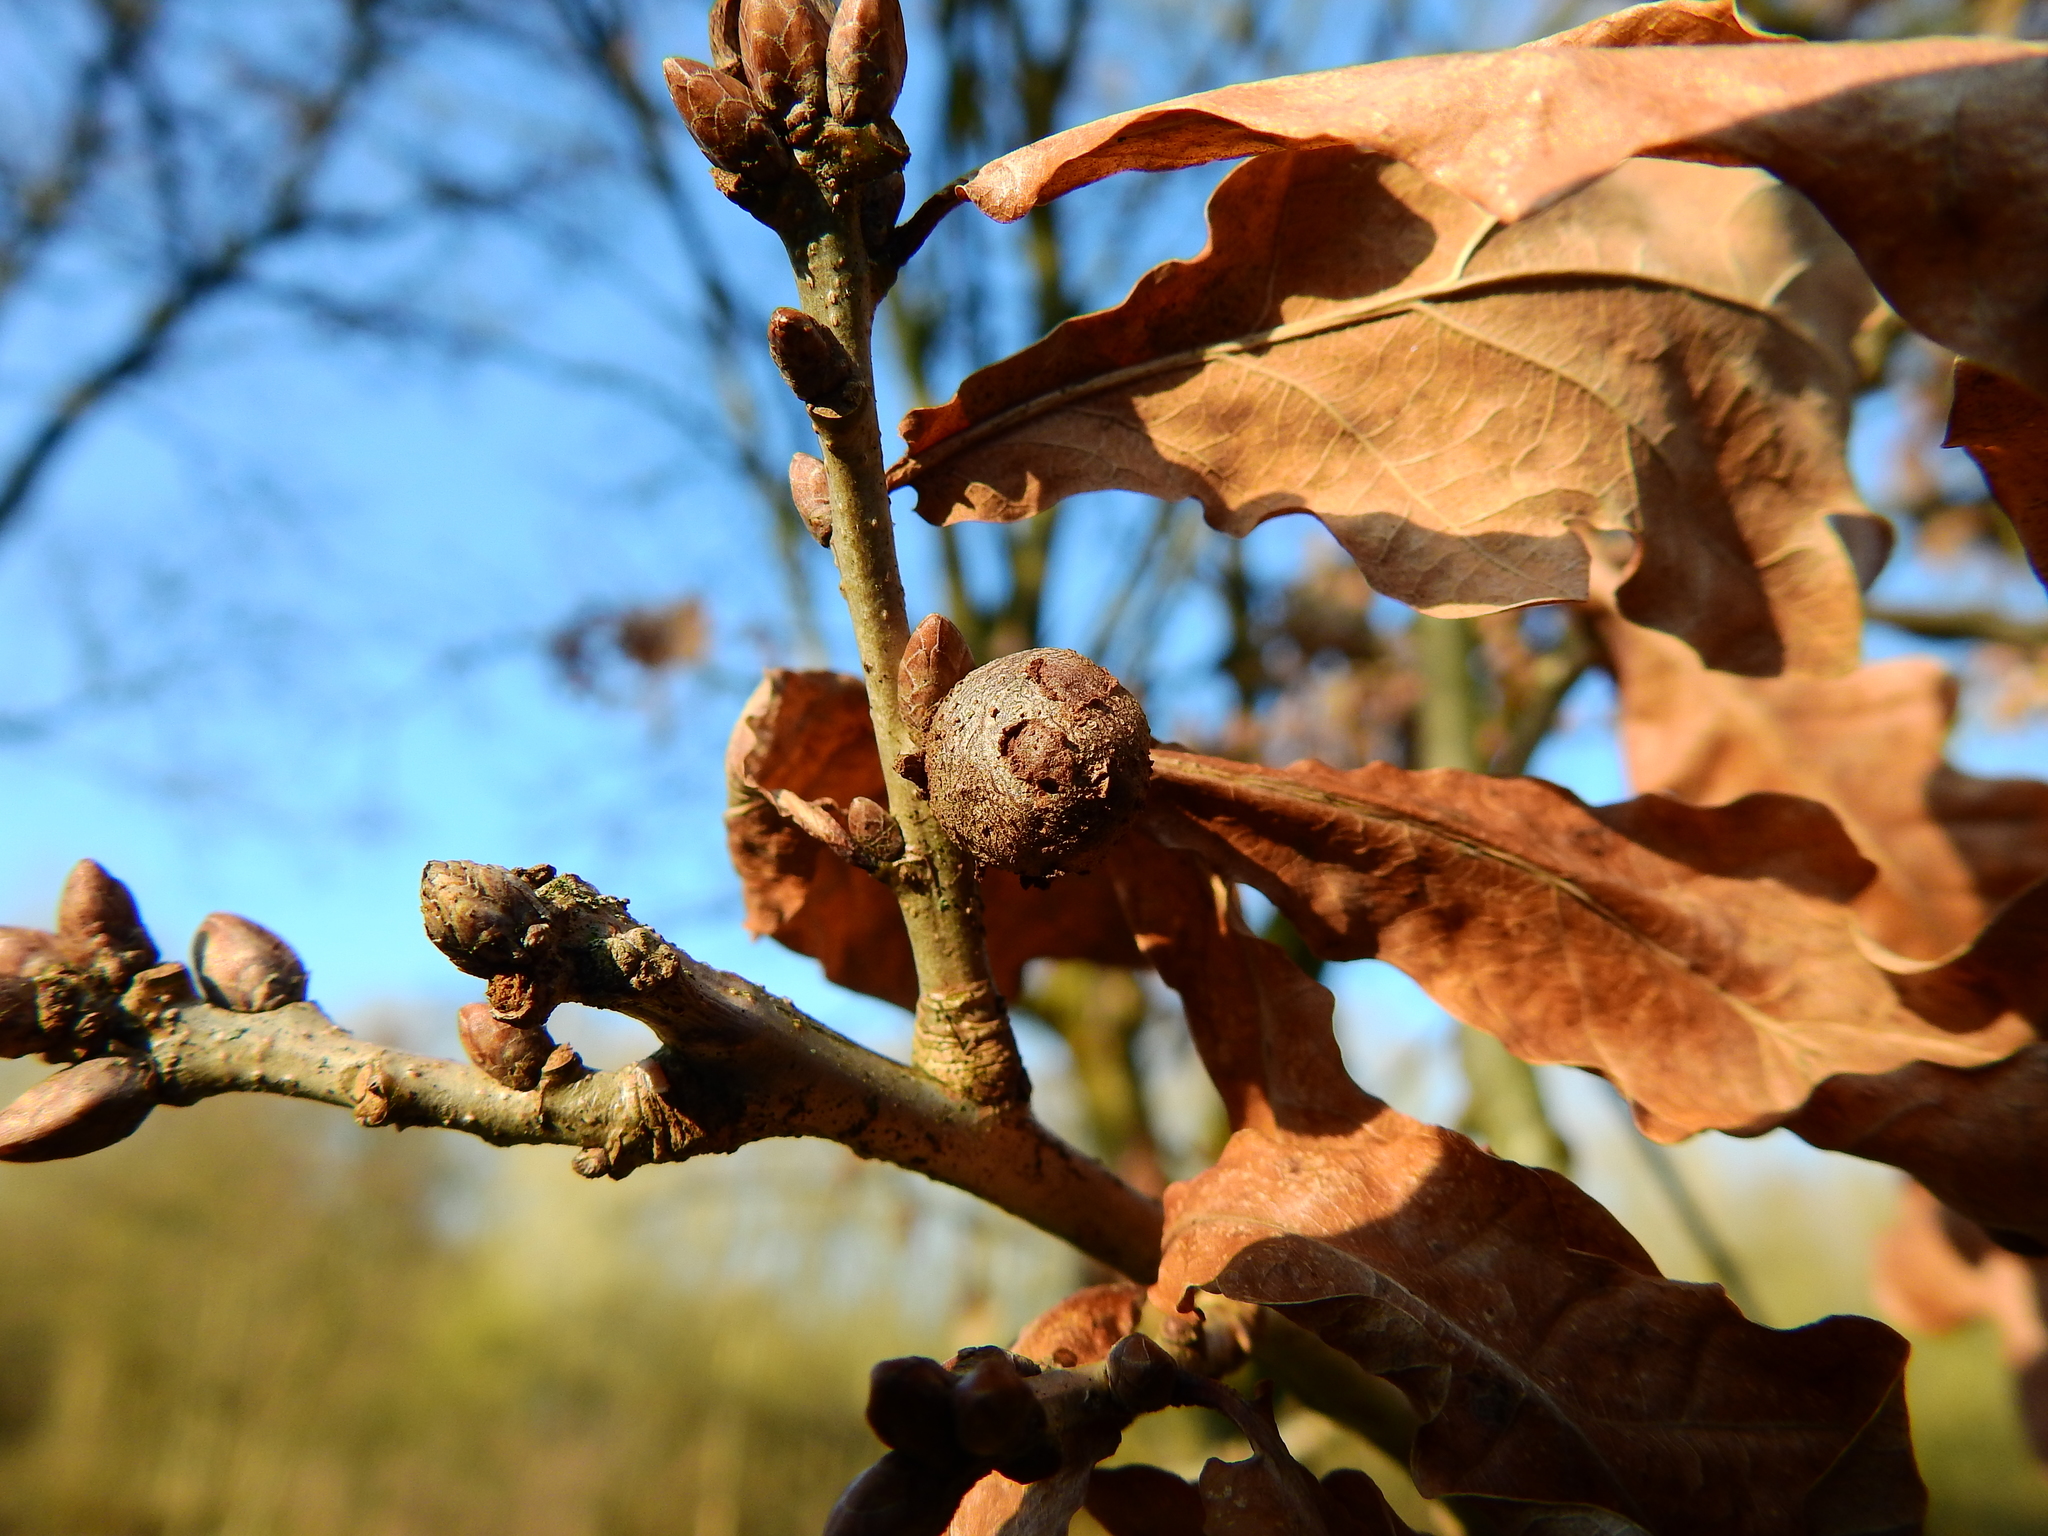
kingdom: Animalia
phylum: Arthropoda
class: Insecta
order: Hymenoptera
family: Cynipidae
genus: Andricus
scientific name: Andricus lignicolus
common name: Cola-nut gall
